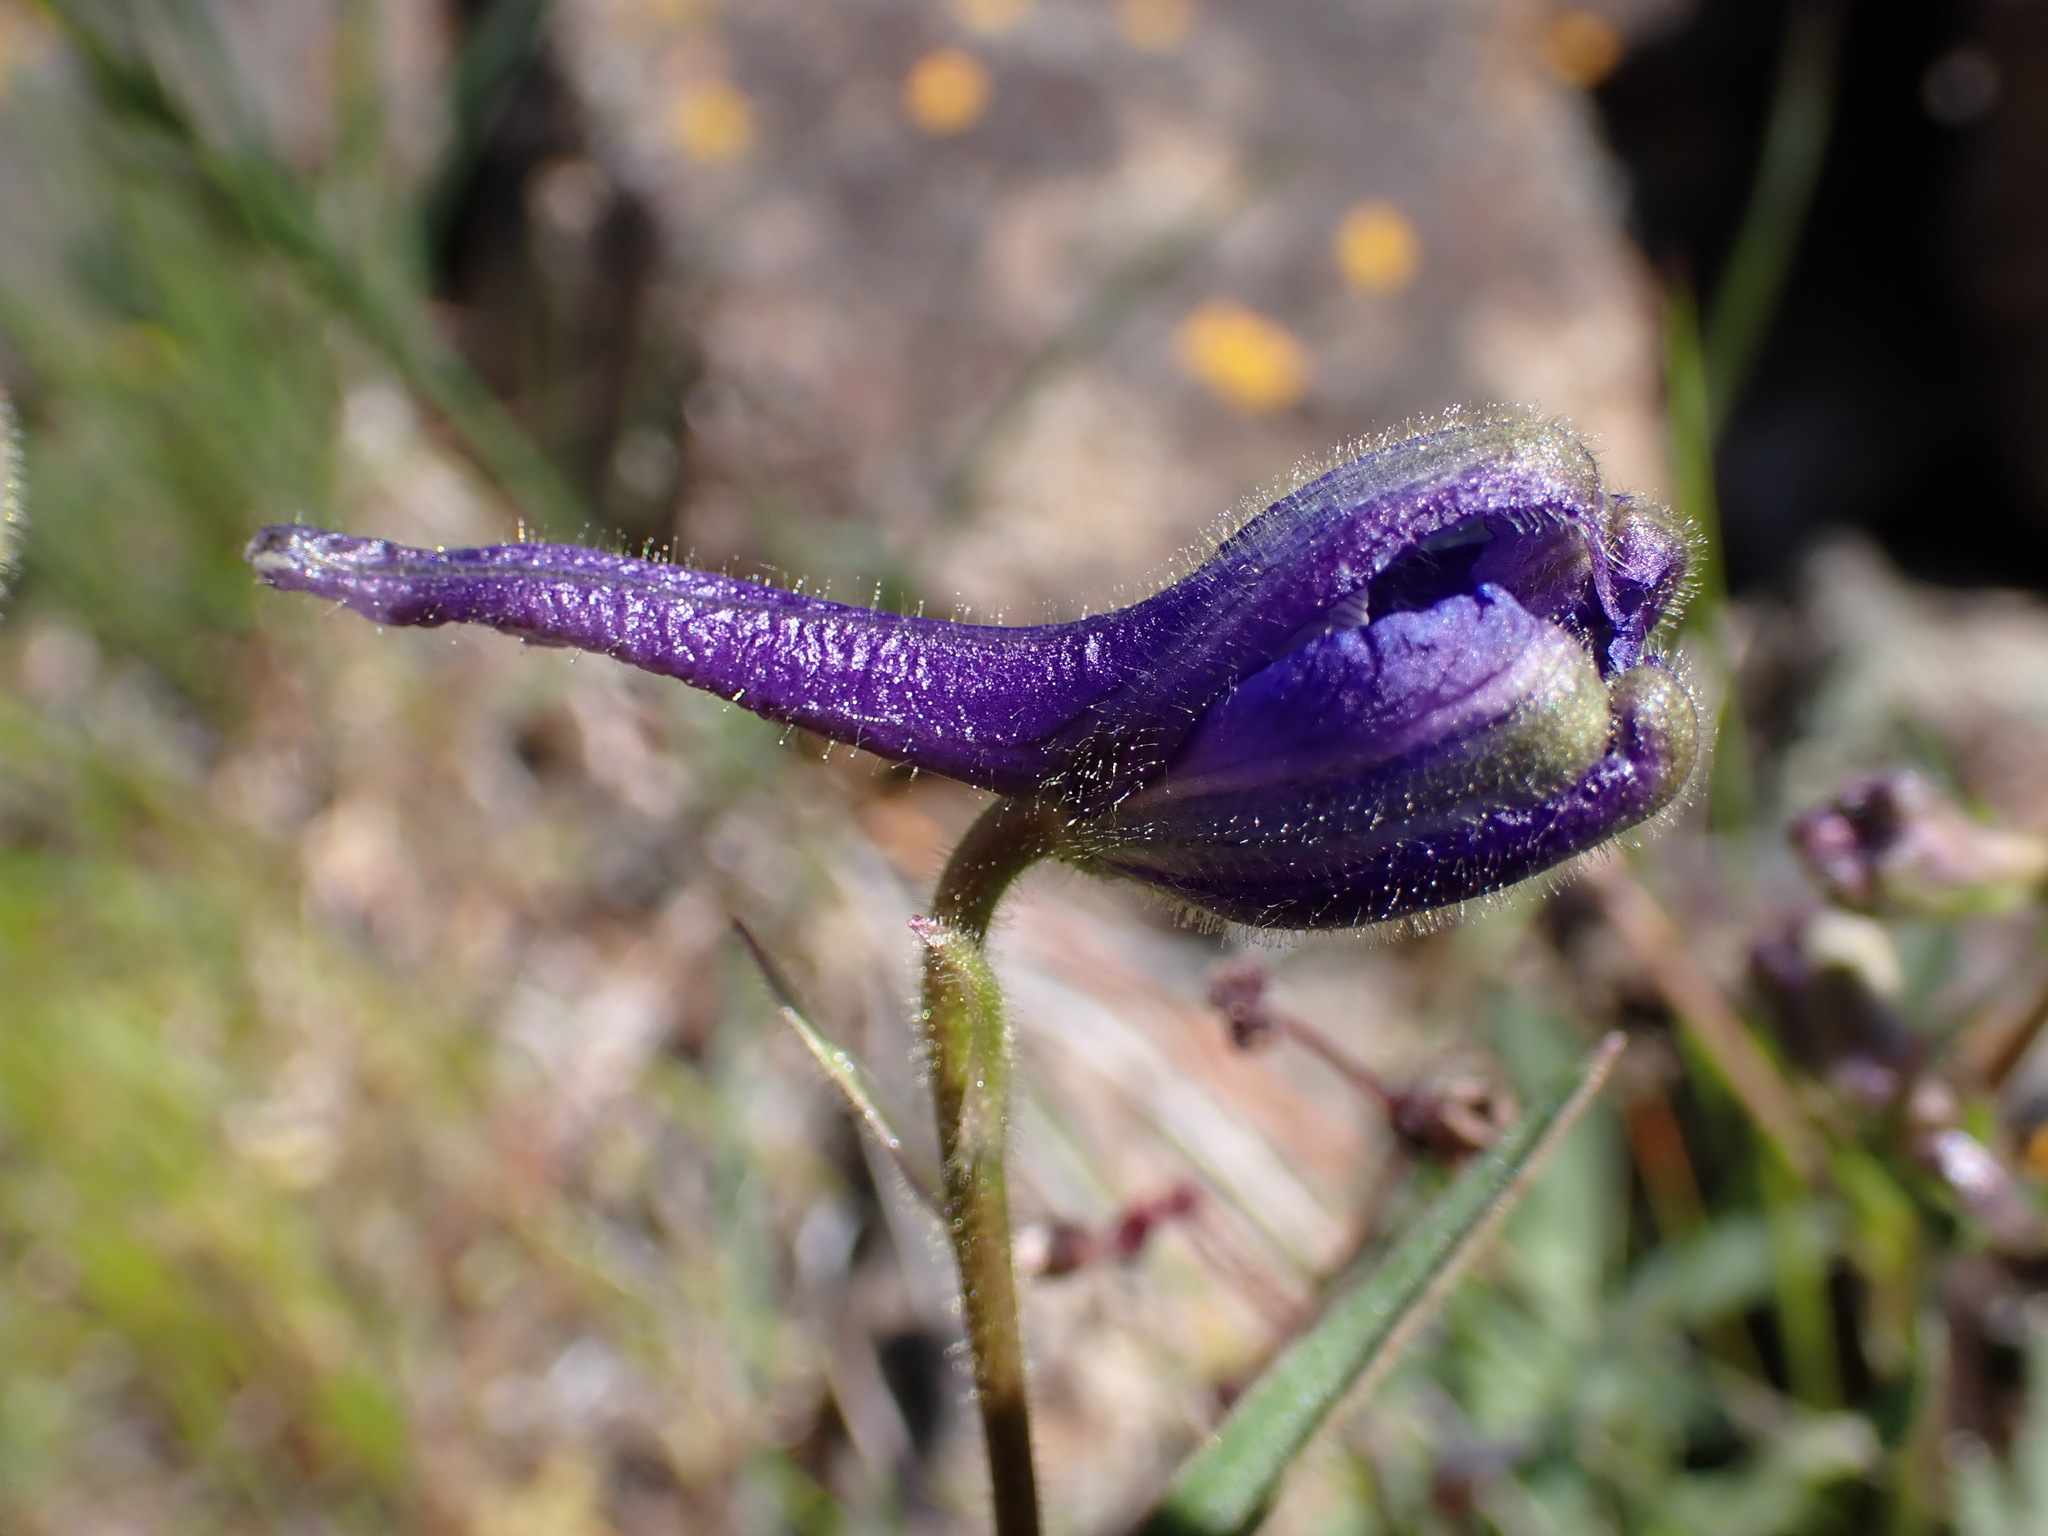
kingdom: Plantae
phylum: Tracheophyta
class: Magnoliopsida
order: Ranunculales
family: Ranunculaceae
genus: Delphinium
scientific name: Delphinium nuttallianum
